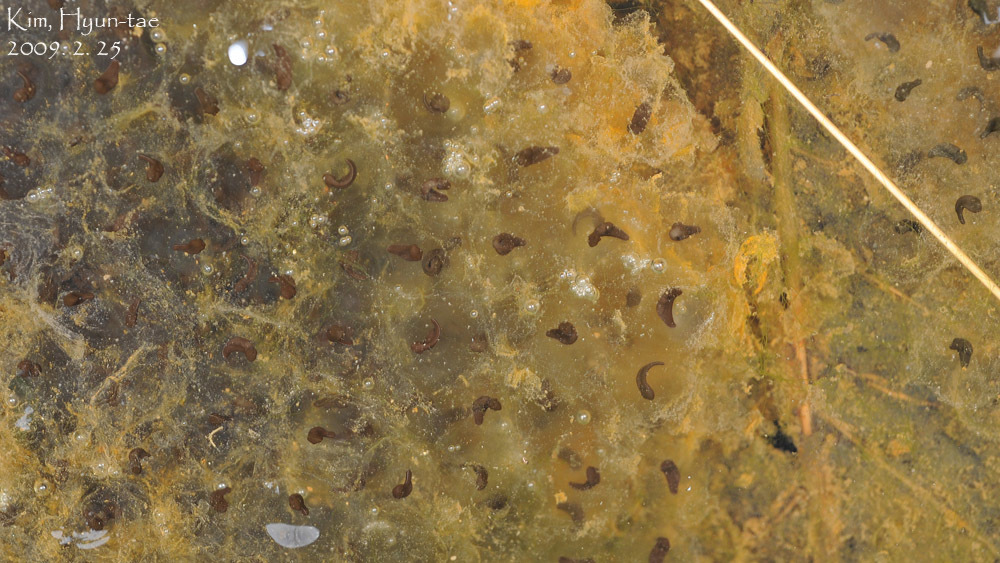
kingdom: Animalia
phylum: Chordata
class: Amphibia
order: Anura
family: Ranidae
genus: Rana
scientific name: Rana uenoi
